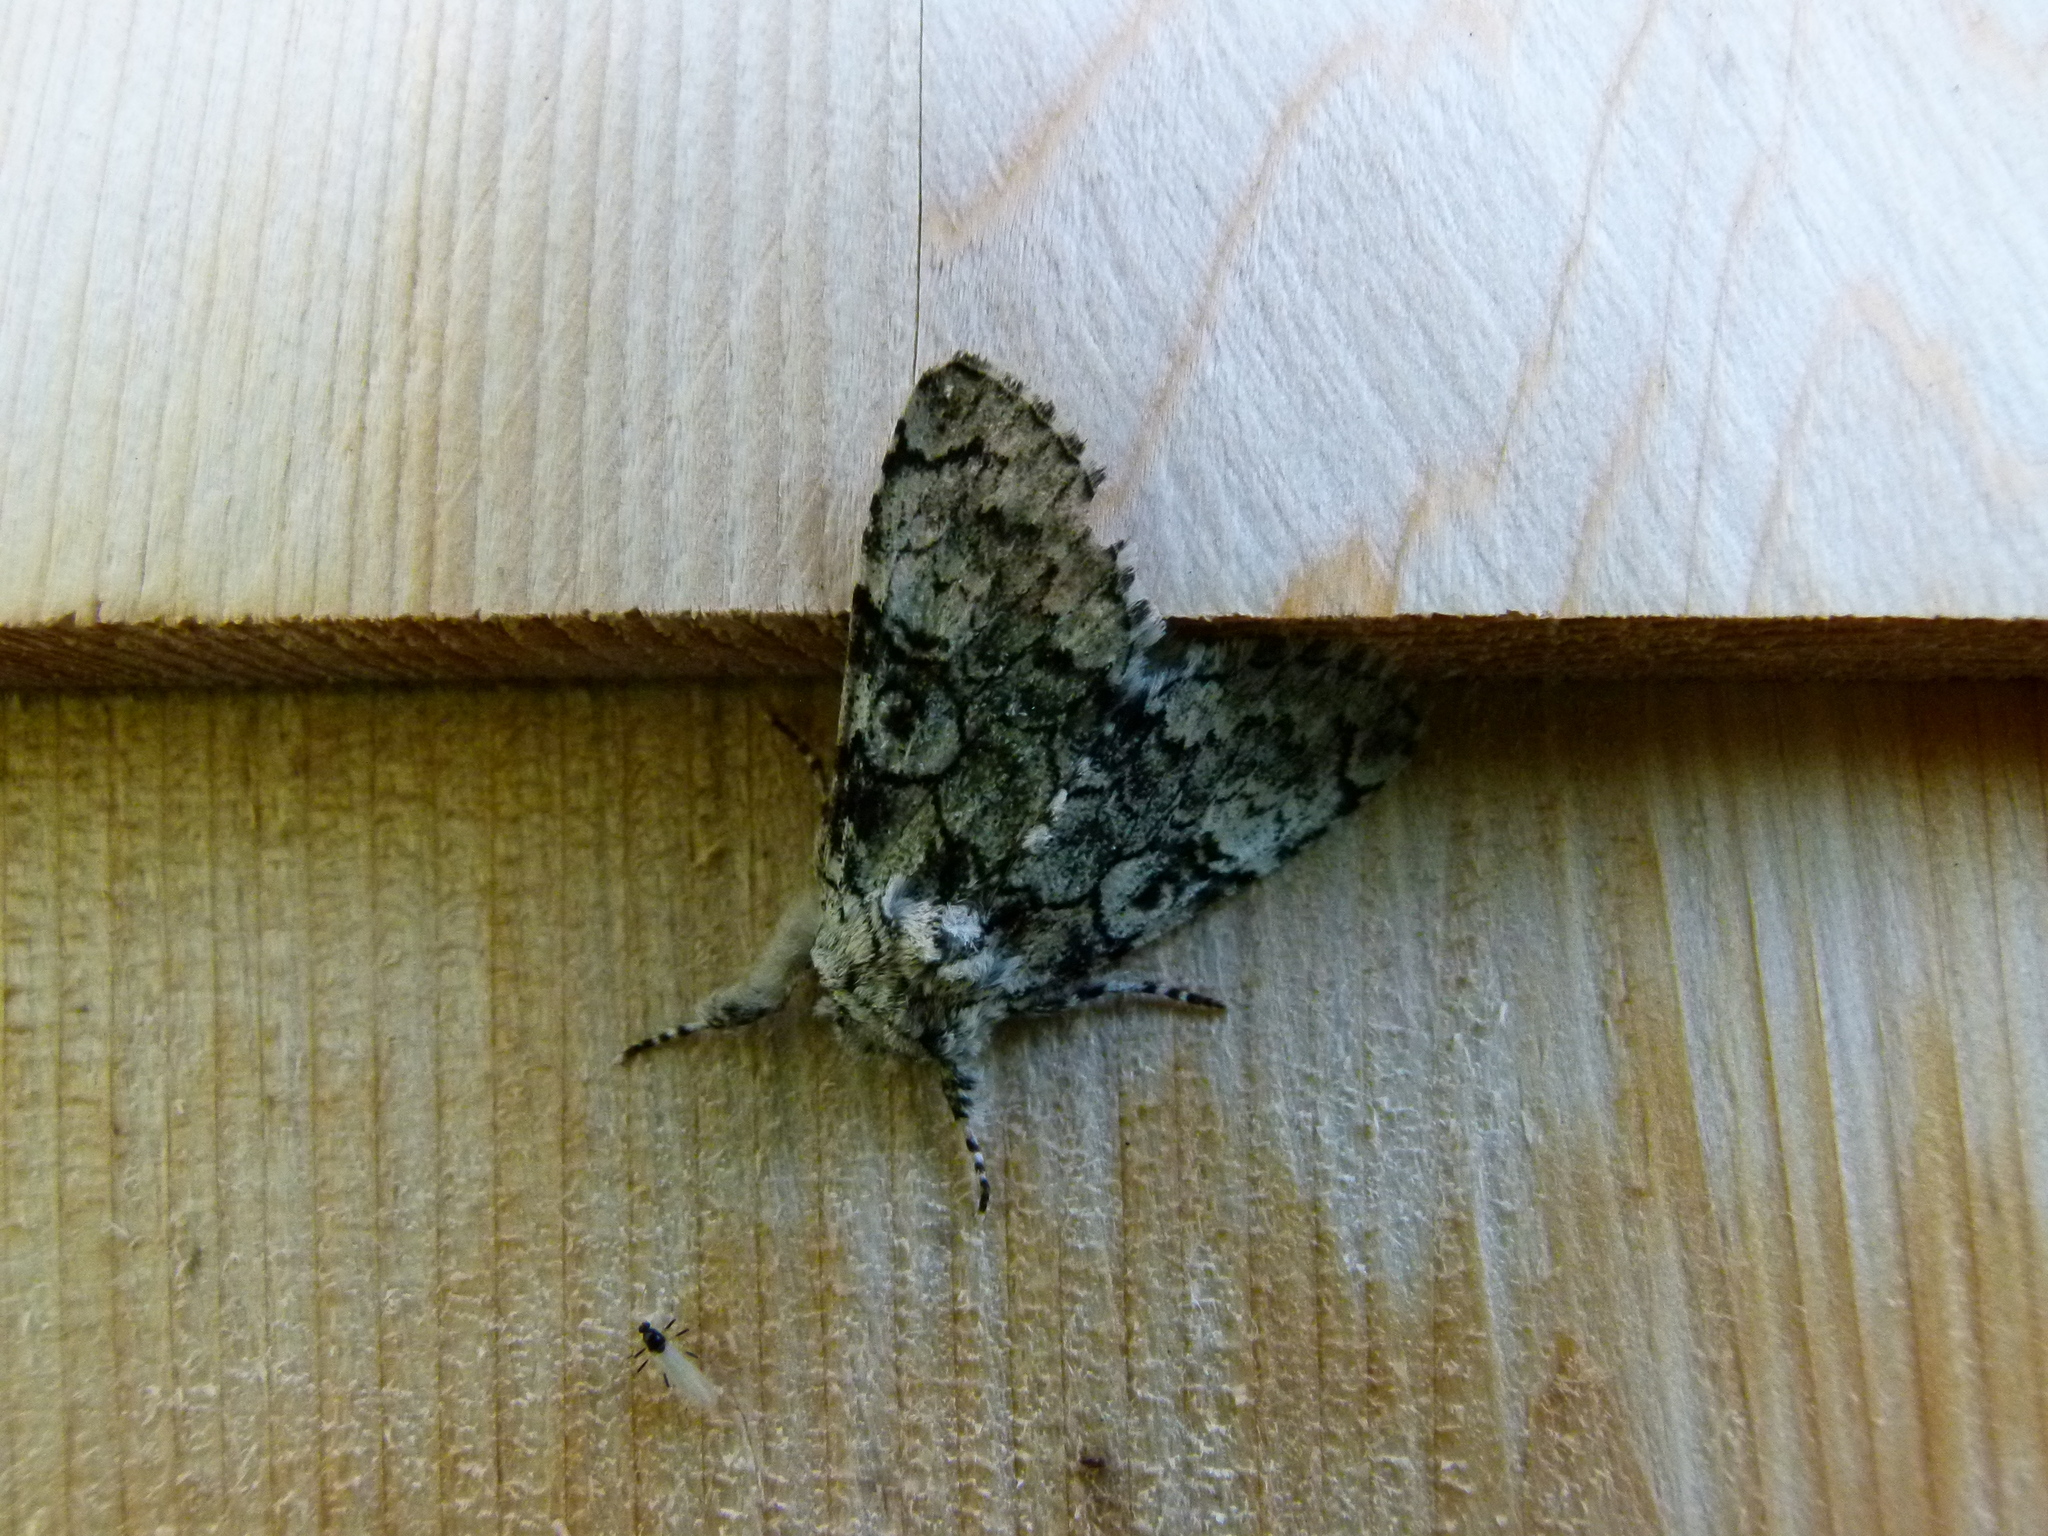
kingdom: Animalia
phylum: Arthropoda
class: Insecta
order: Lepidoptera
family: Noctuidae
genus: Charadra
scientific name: Charadra deridens
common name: Marbled tuffet
